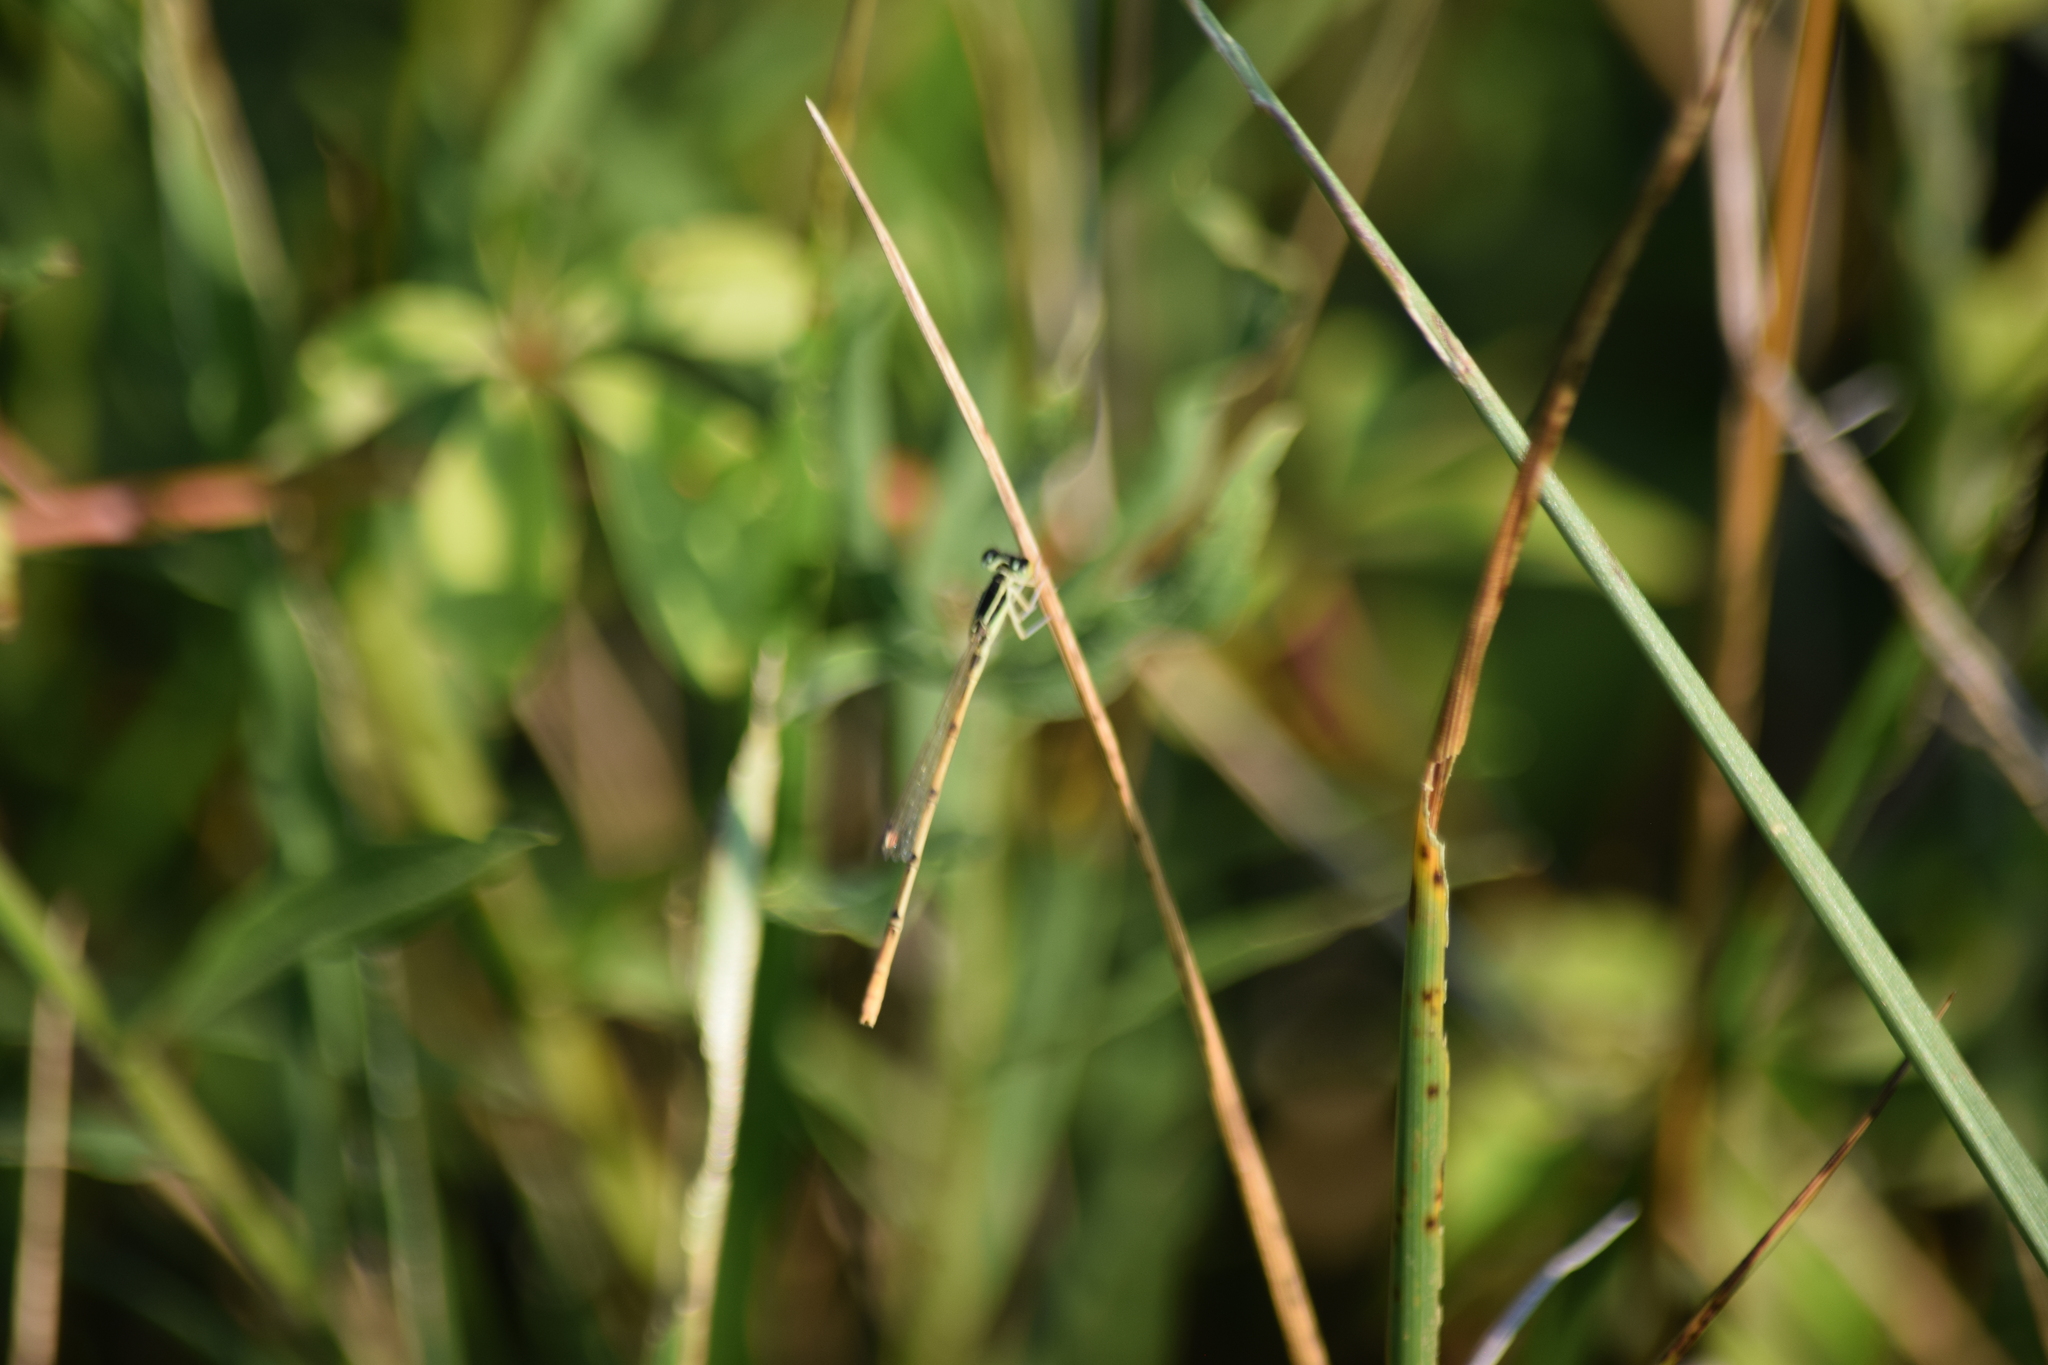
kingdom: Animalia
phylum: Arthropoda
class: Insecta
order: Odonata
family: Coenagrionidae
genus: Ischnura
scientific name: Ischnura hastata
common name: Citrine forktail
